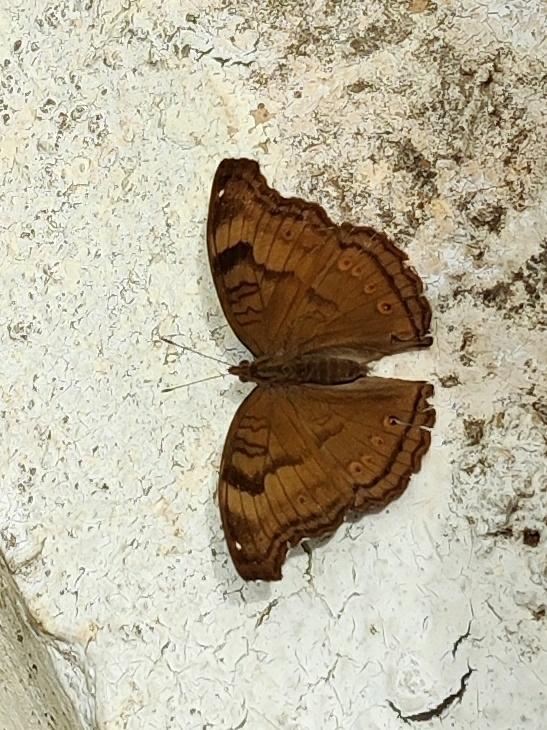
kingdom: Animalia
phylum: Arthropoda
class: Insecta
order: Lepidoptera
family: Nymphalidae
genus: Junonia
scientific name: Junonia iphita
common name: Chocolate pansy
